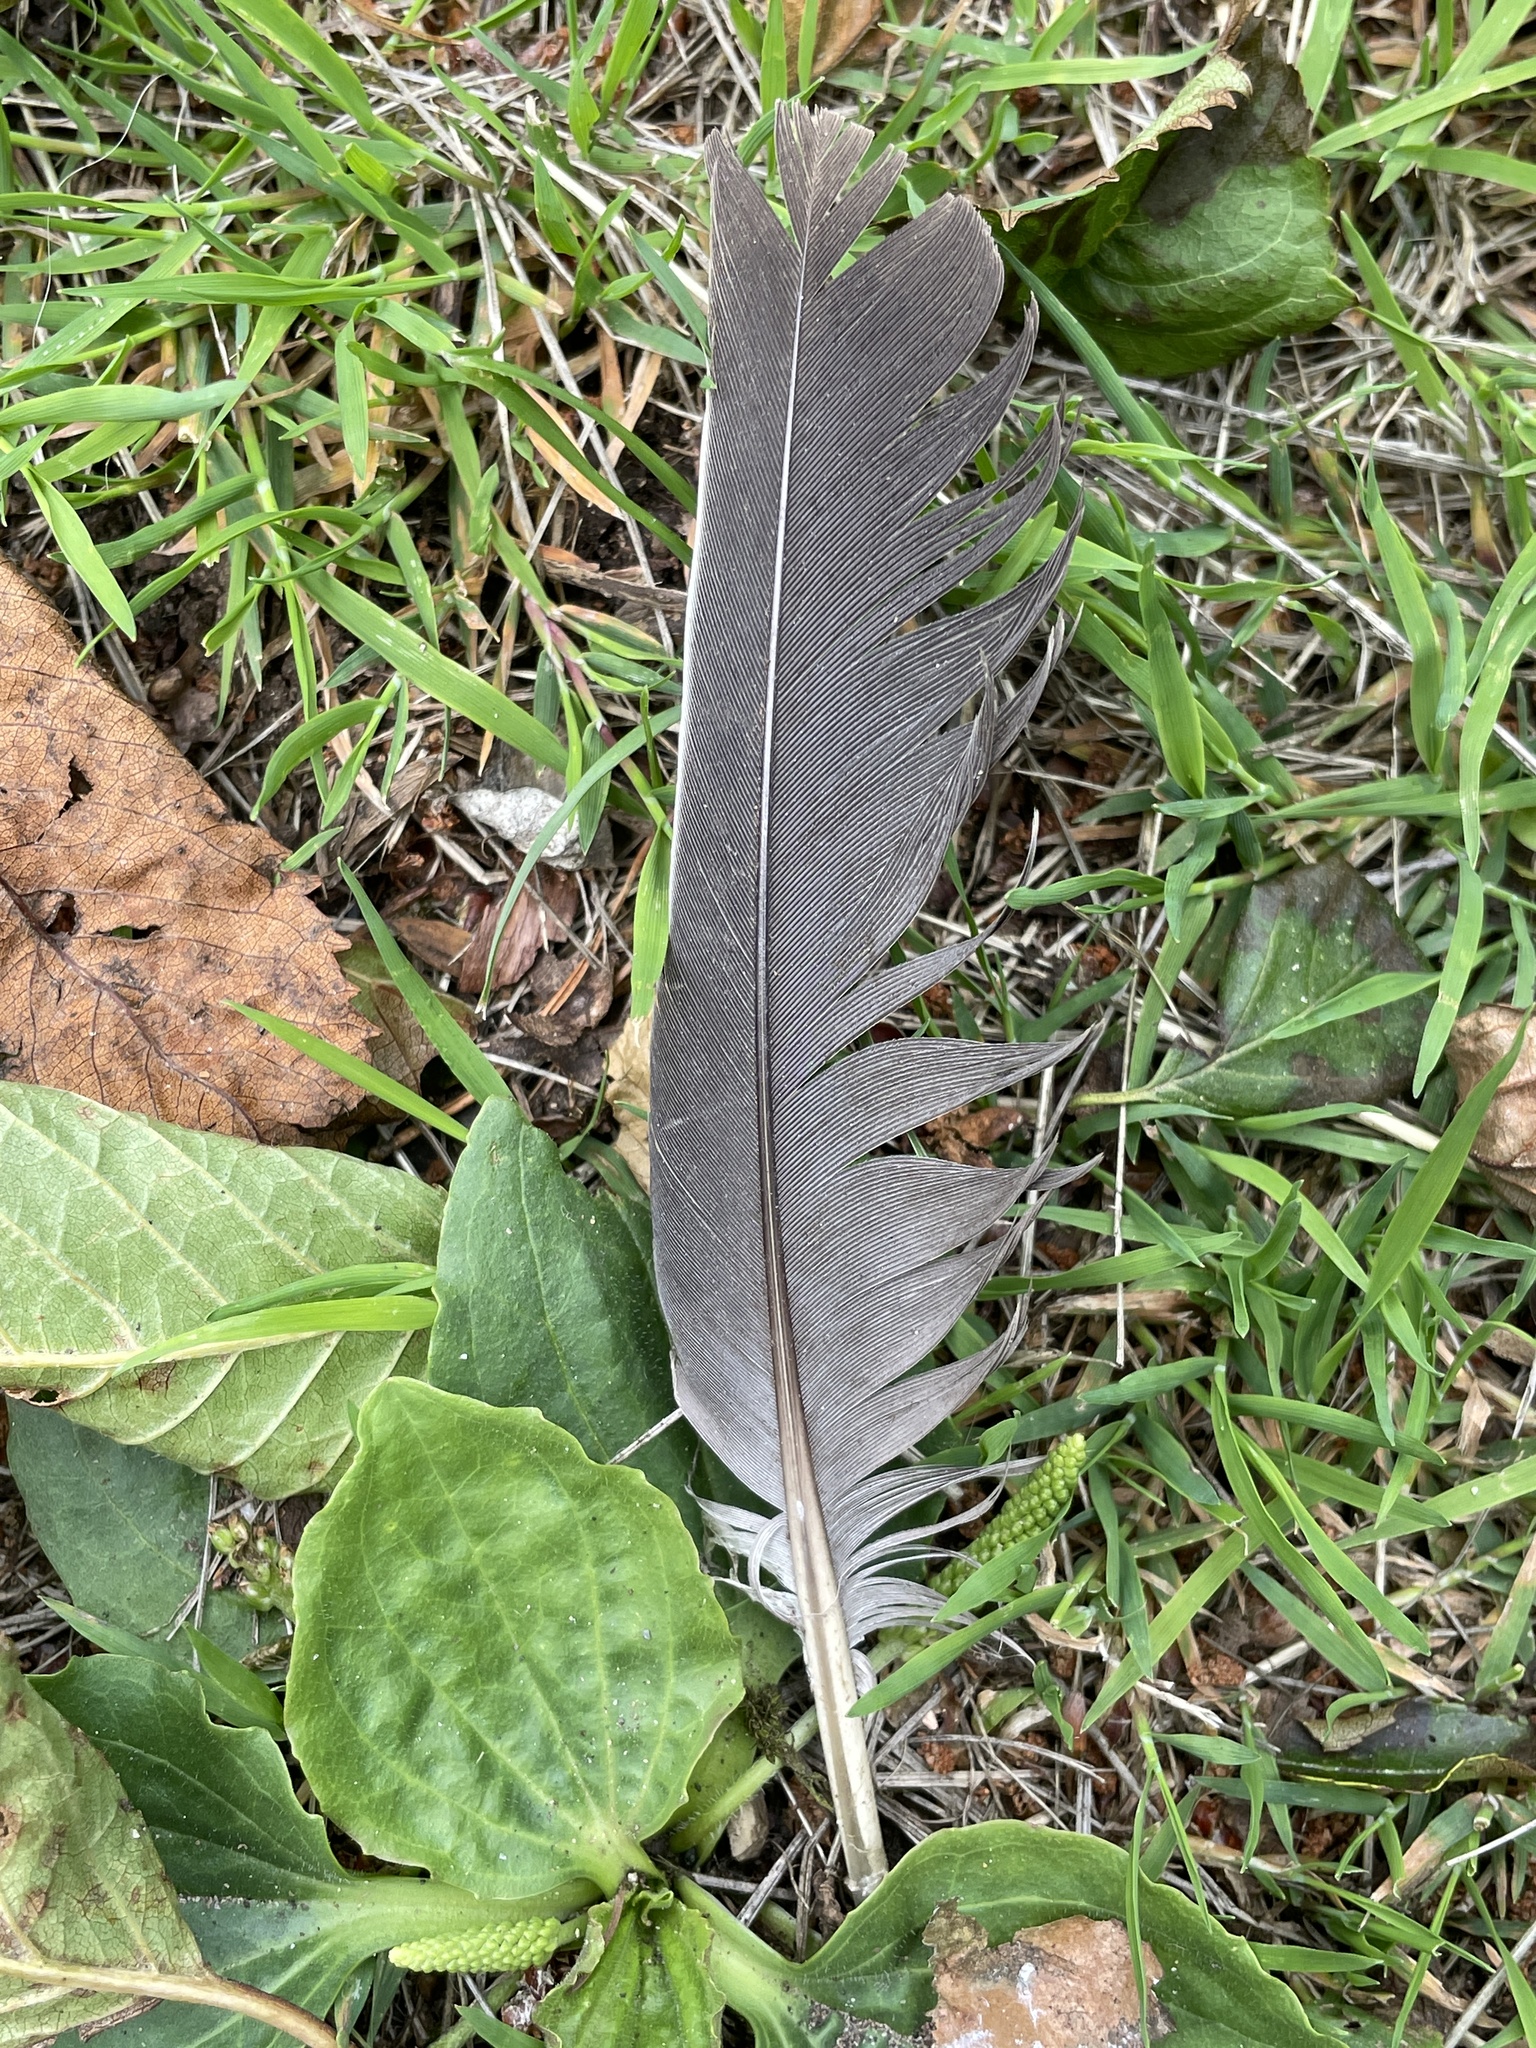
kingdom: Animalia
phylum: Chordata
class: Aves
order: Columbiformes
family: Columbidae
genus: Columba
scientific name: Columba palumbus
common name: Common wood pigeon
